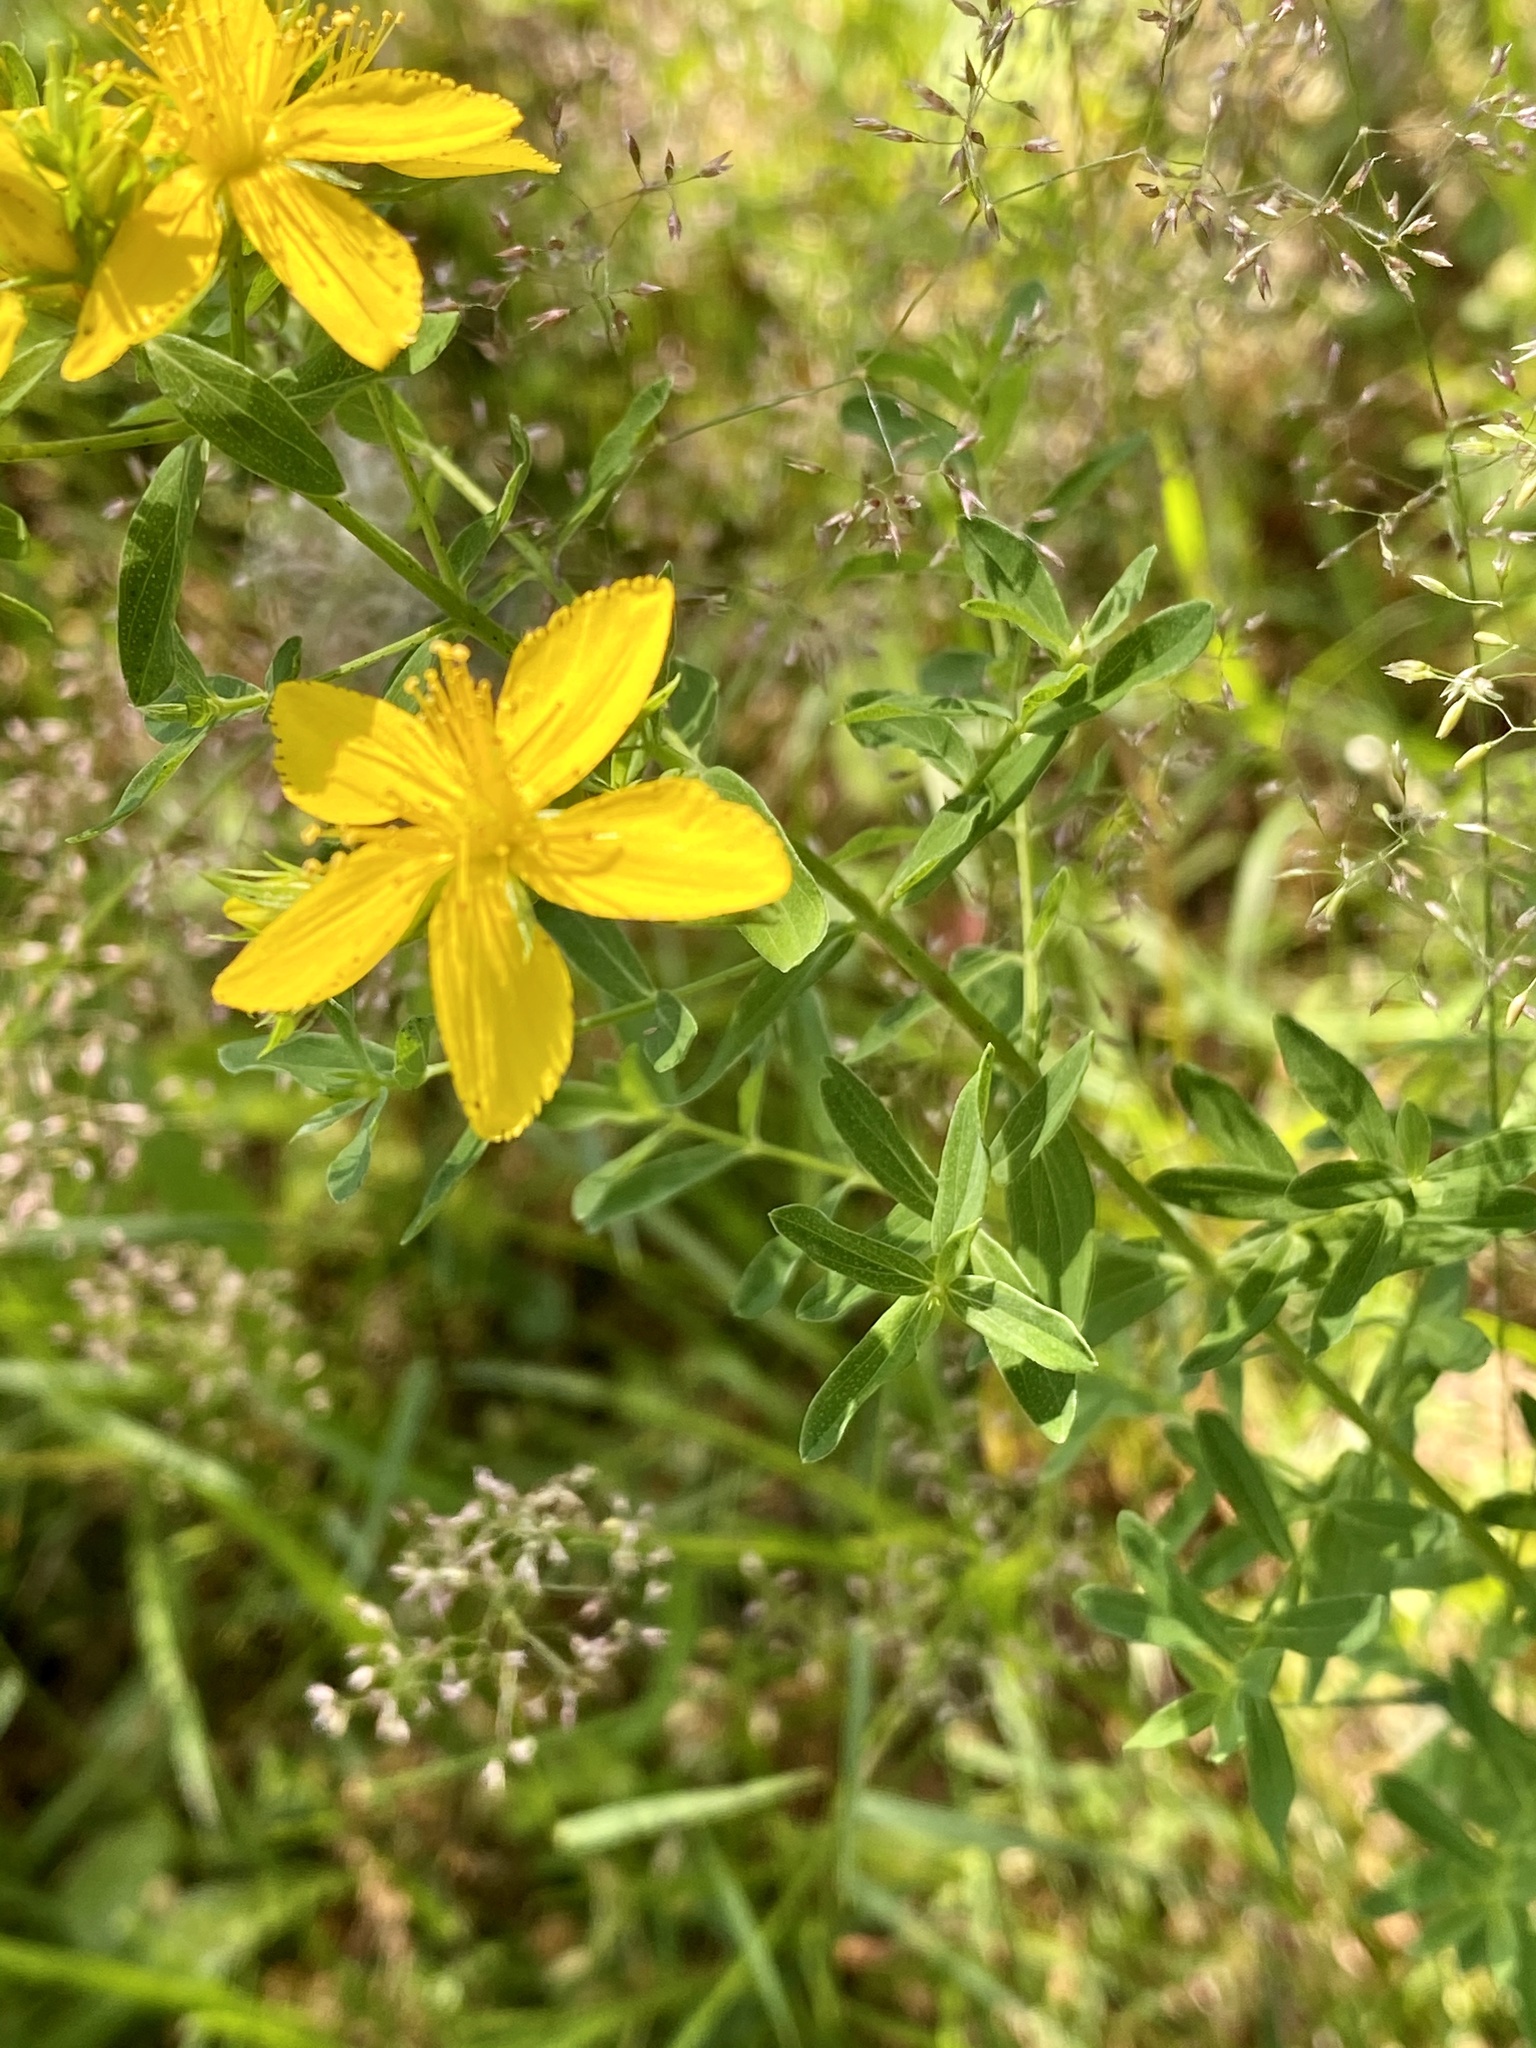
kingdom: Plantae
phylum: Tracheophyta
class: Magnoliopsida
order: Malpighiales
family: Hypericaceae
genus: Hypericum
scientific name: Hypericum perforatum
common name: Common st. johnswort
